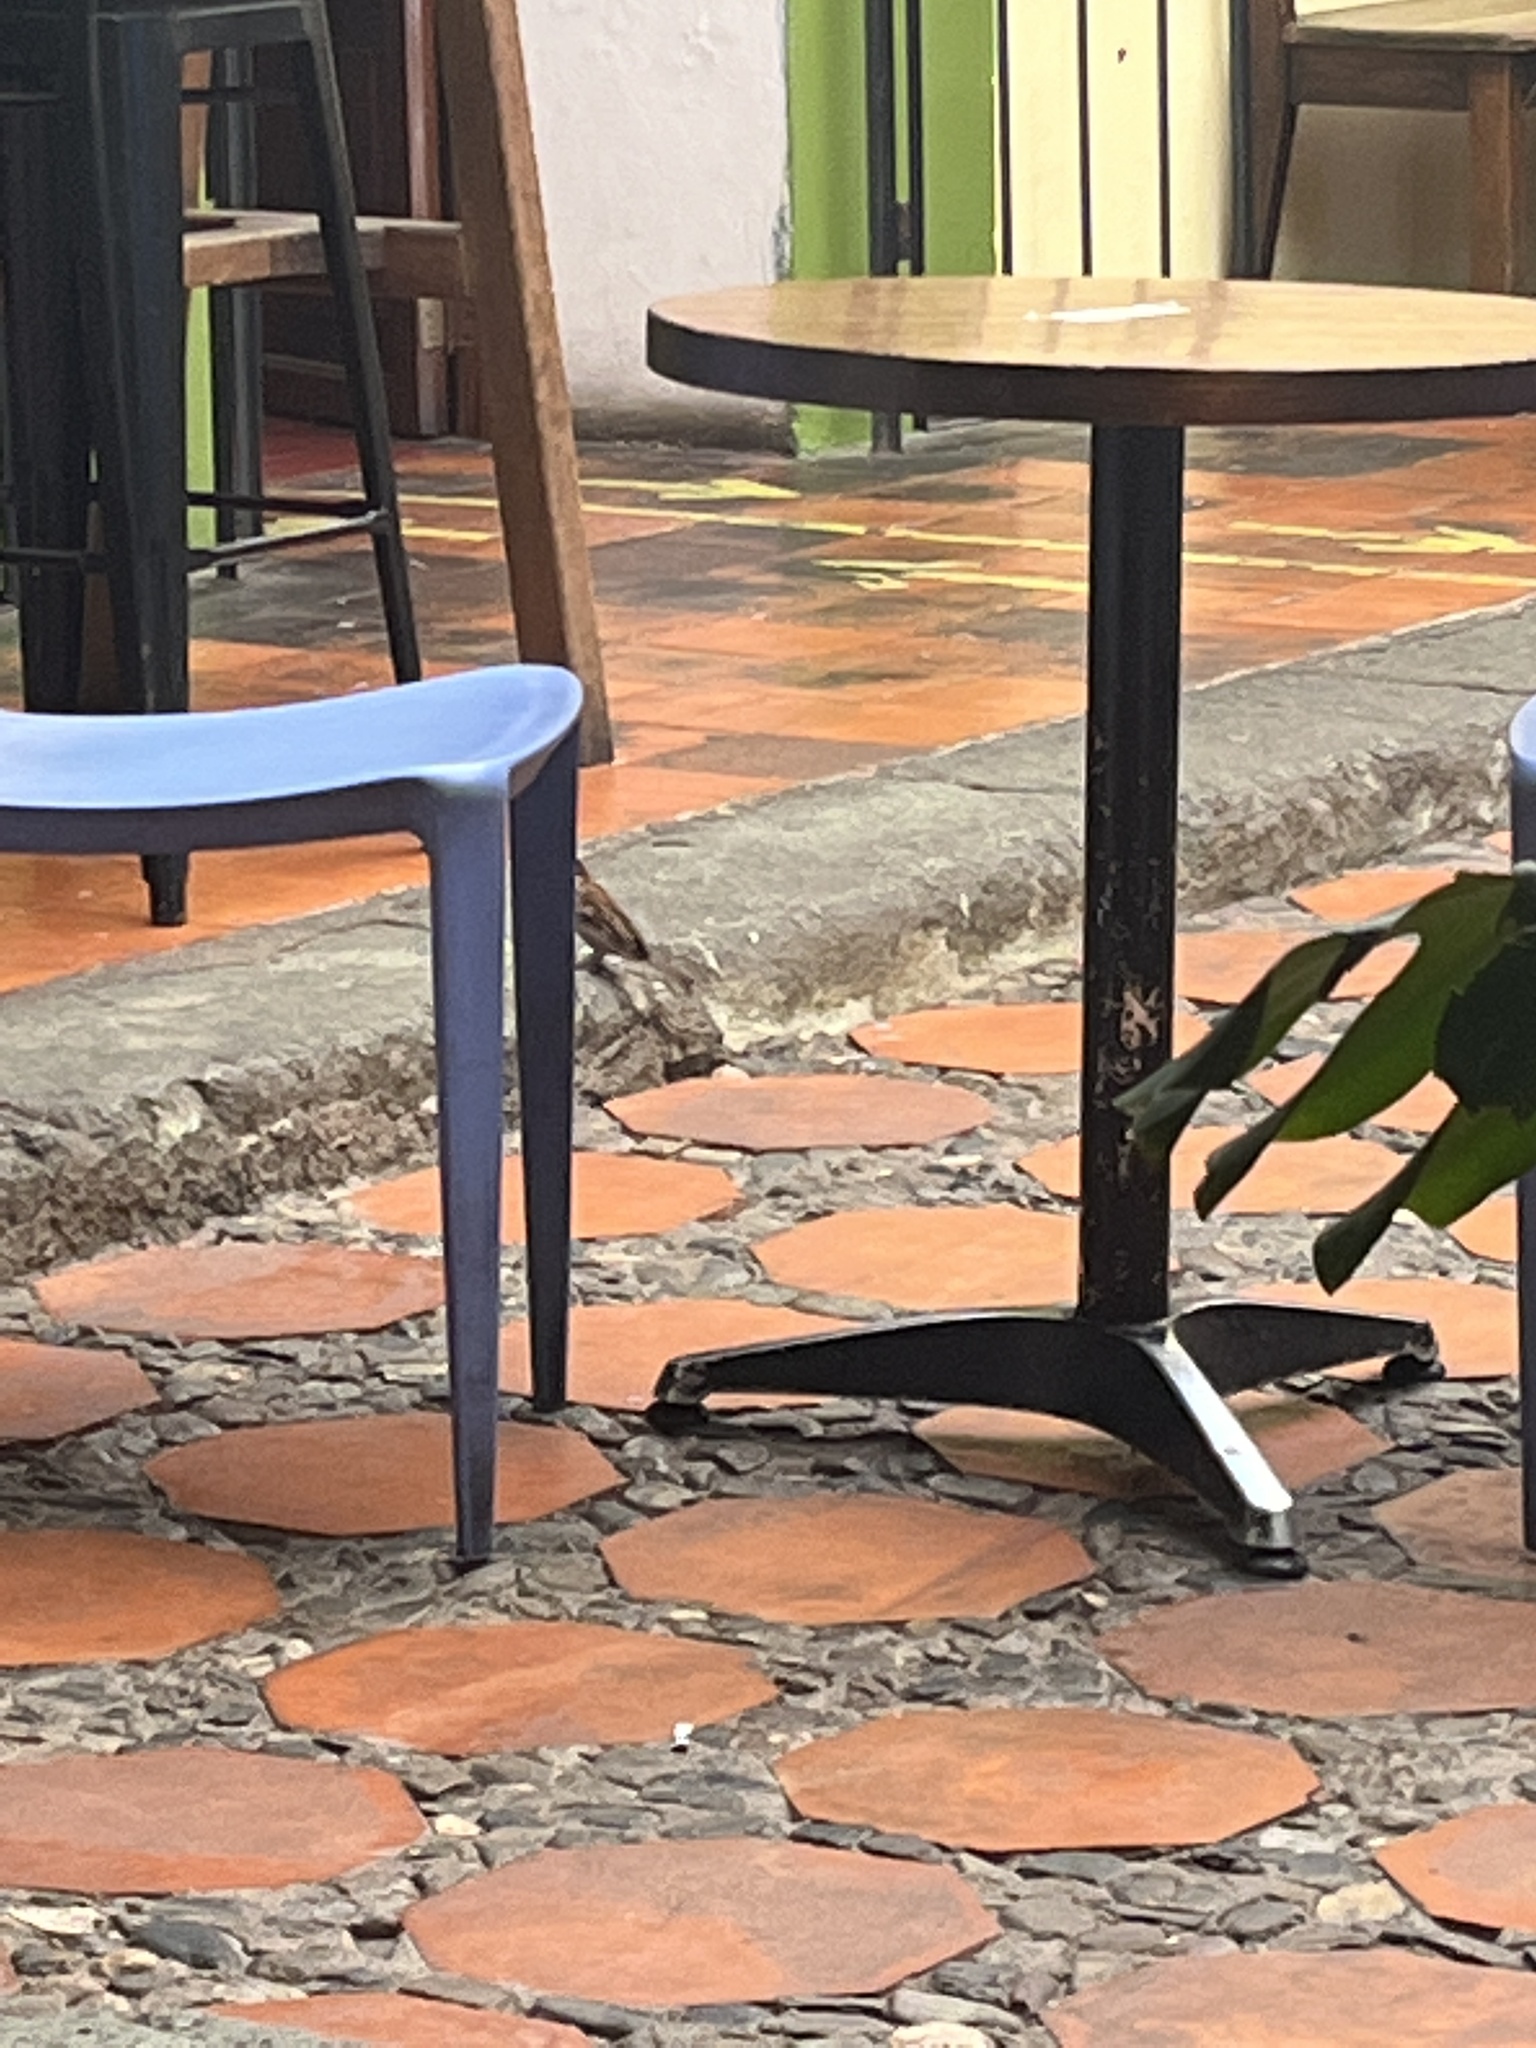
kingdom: Animalia
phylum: Chordata
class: Aves
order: Passeriformes
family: Passeridae
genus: Passer
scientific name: Passer domesticus
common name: House sparrow
